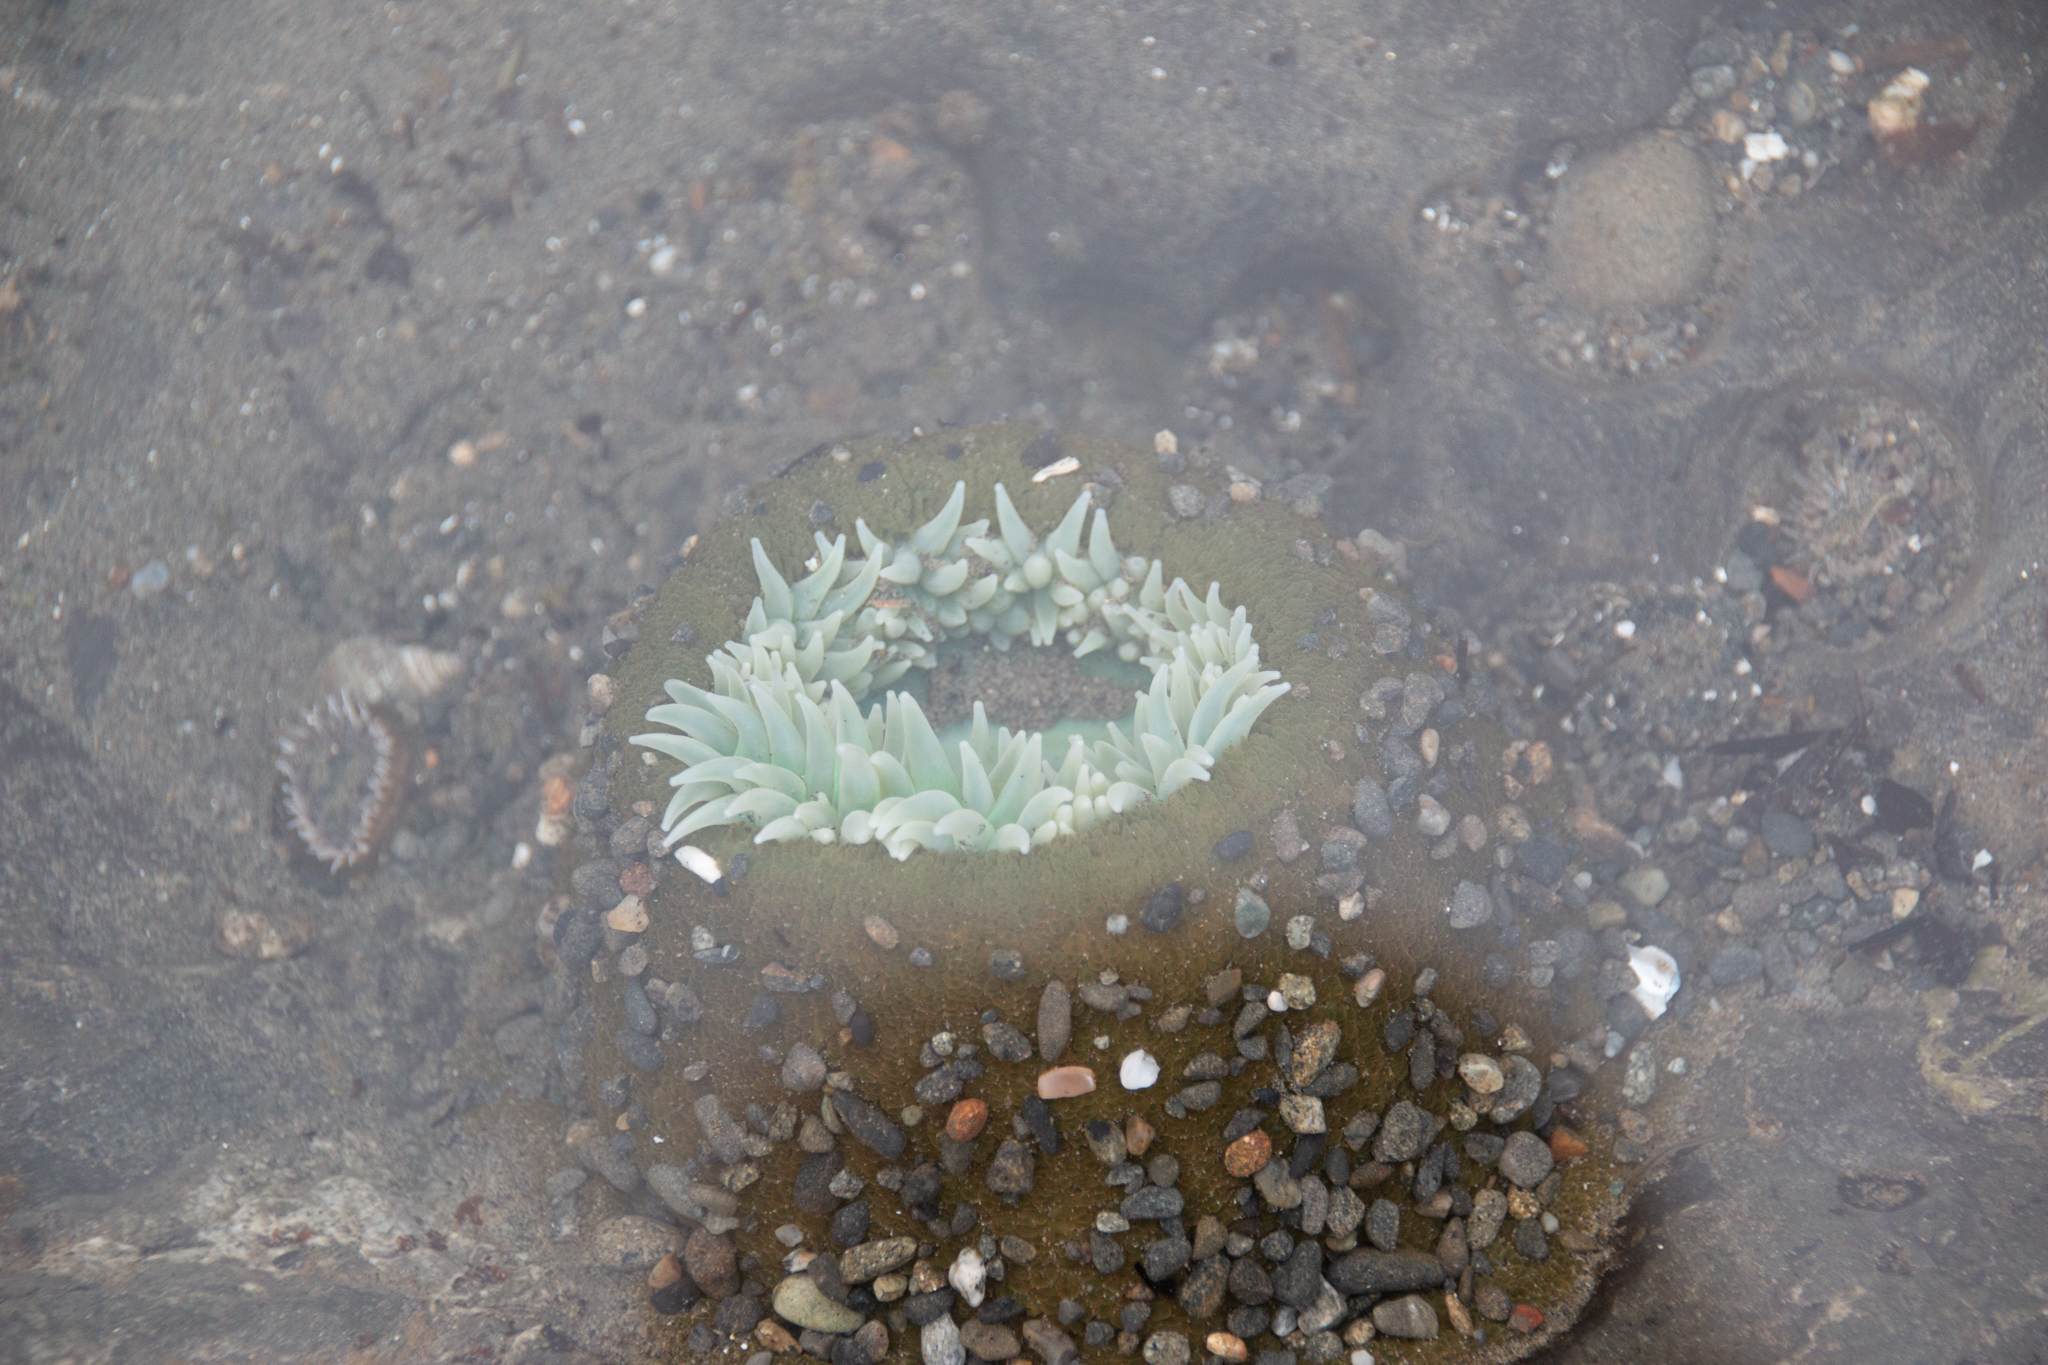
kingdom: Animalia
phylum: Cnidaria
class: Anthozoa
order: Actiniaria
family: Actiniidae
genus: Anthopleura
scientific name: Anthopleura xanthogrammica
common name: Giant green anemone
